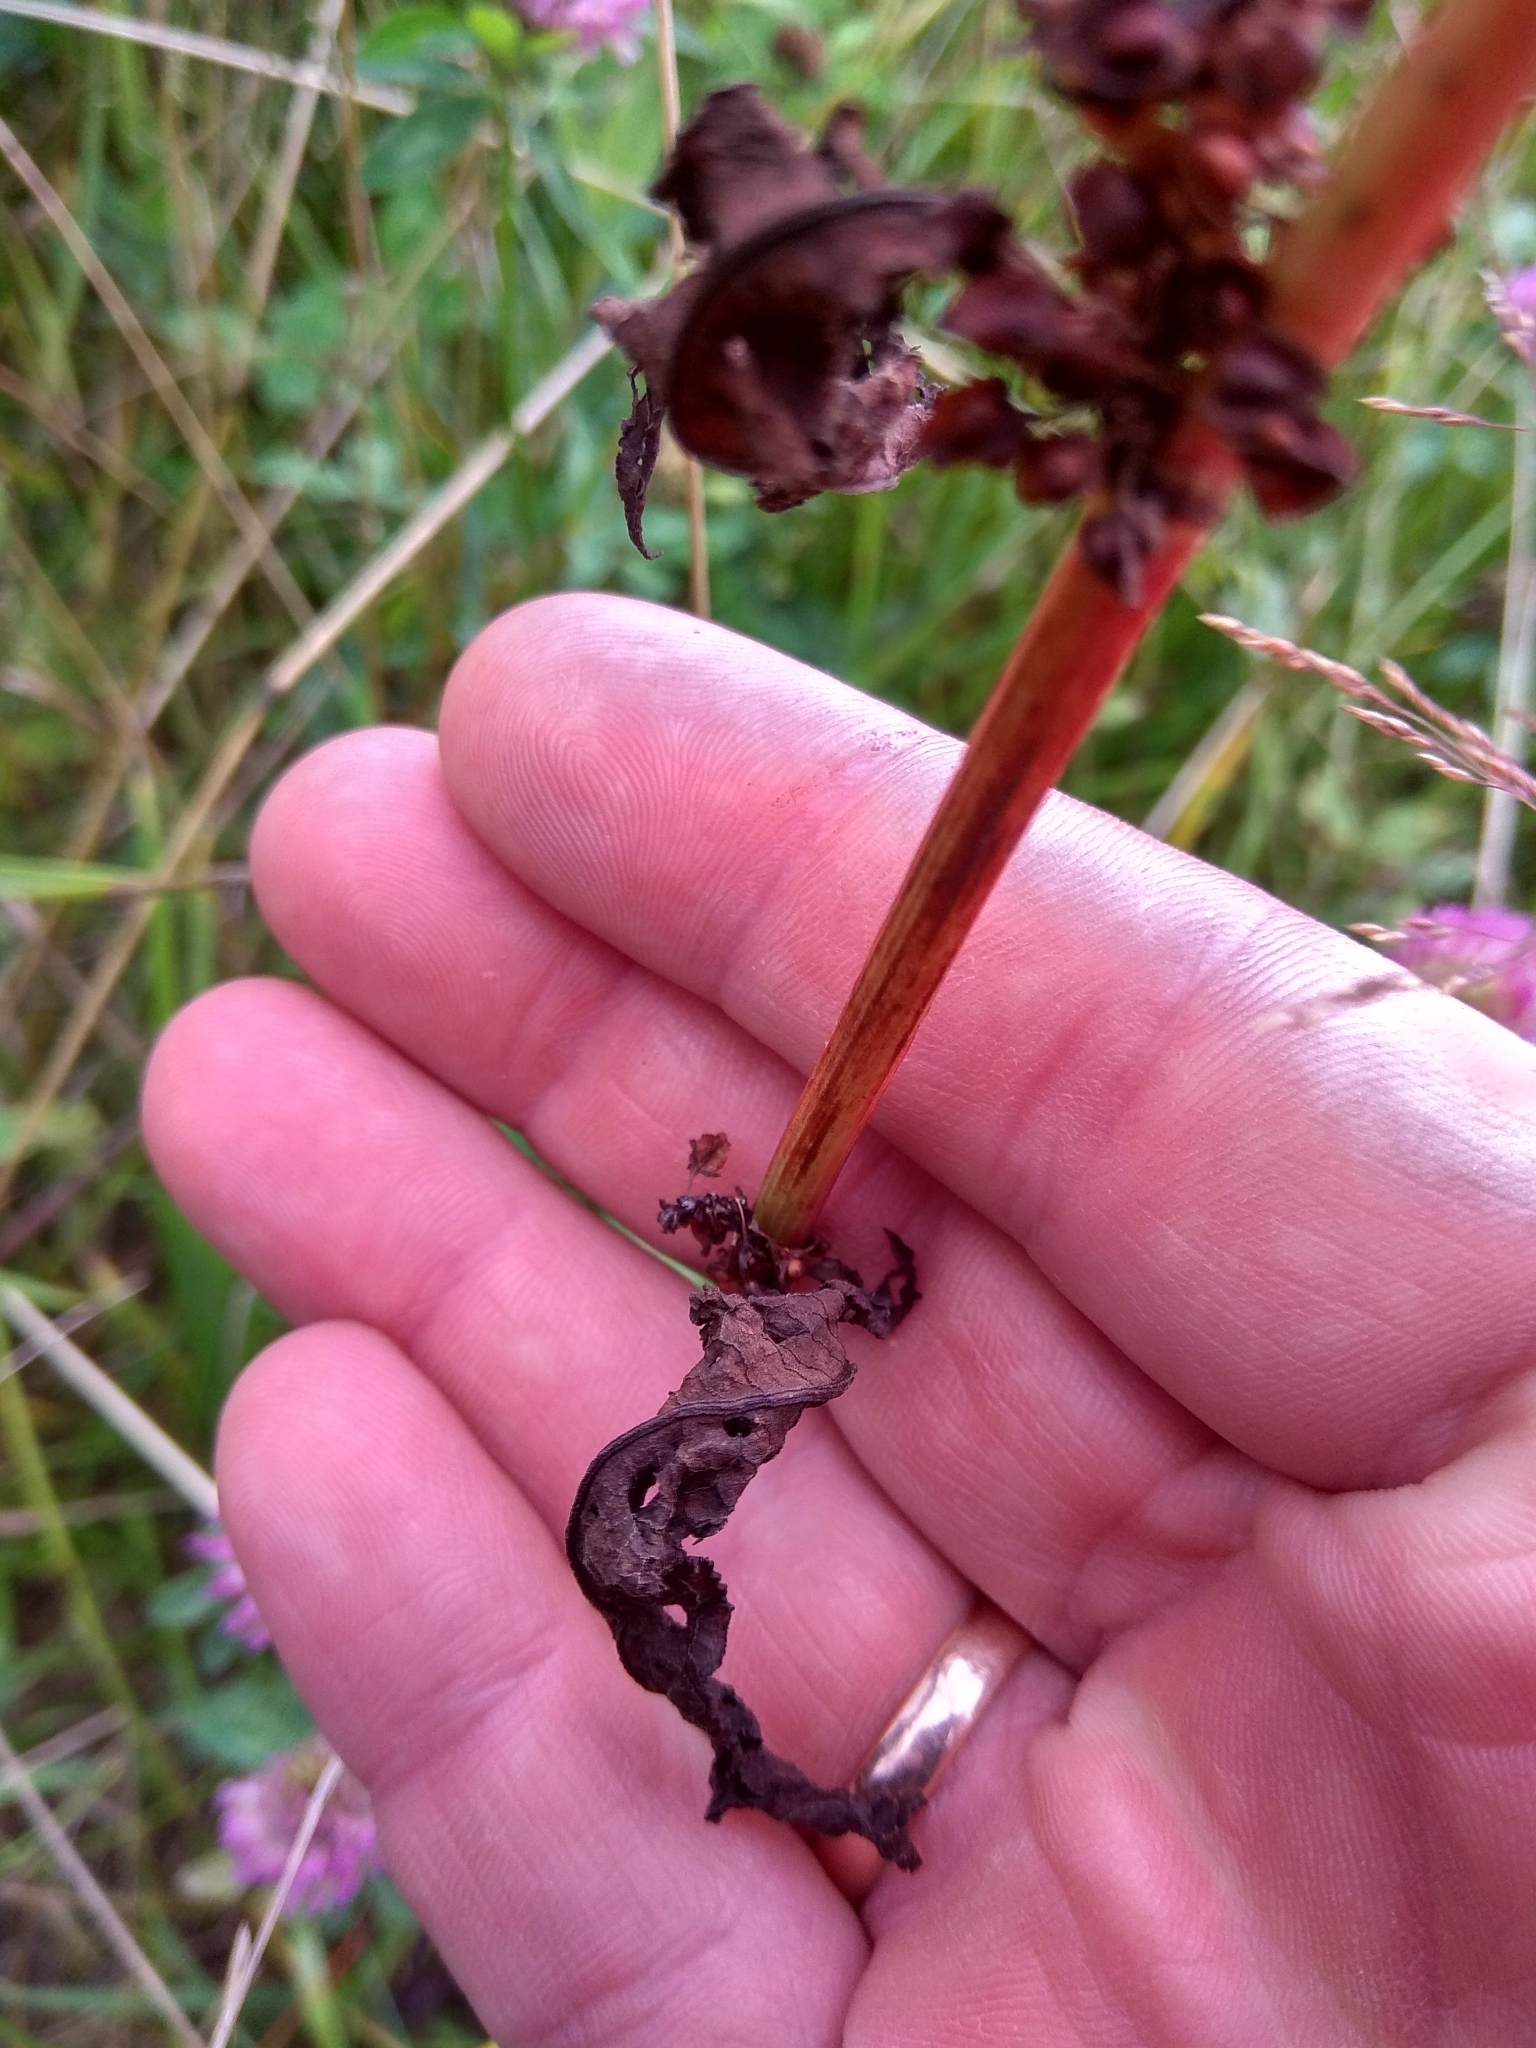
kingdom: Plantae
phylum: Tracheophyta
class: Magnoliopsida
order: Caryophyllales
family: Polygonaceae
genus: Rumex
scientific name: Rumex crispus
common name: Curled dock
